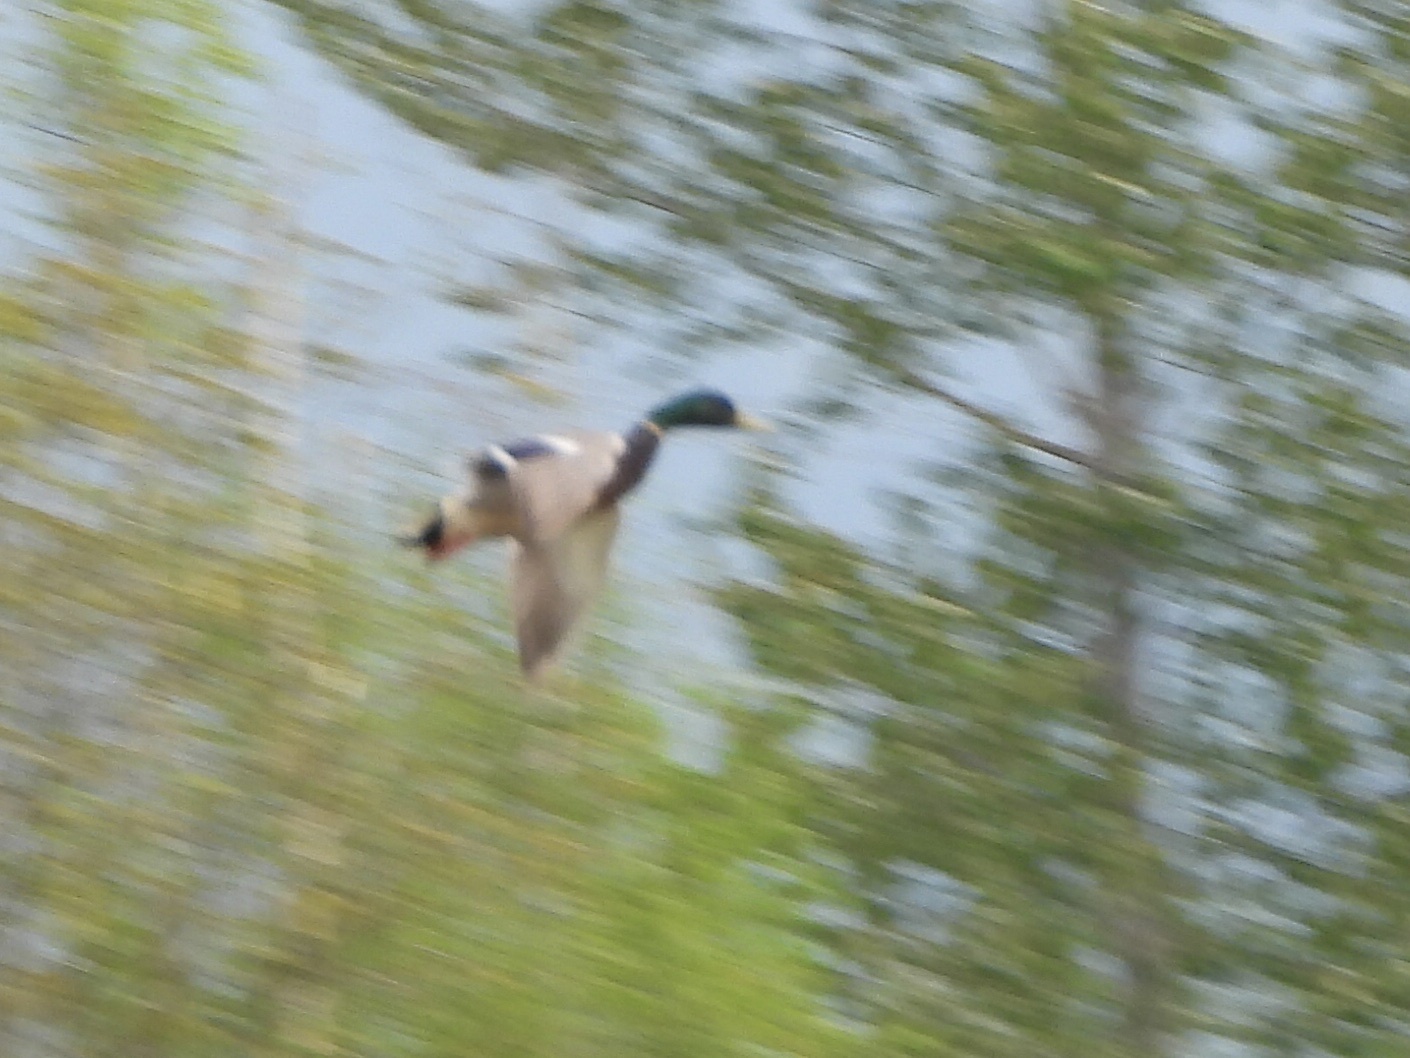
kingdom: Animalia
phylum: Chordata
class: Aves
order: Anseriformes
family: Anatidae
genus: Anas
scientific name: Anas platyrhynchos
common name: Mallard
